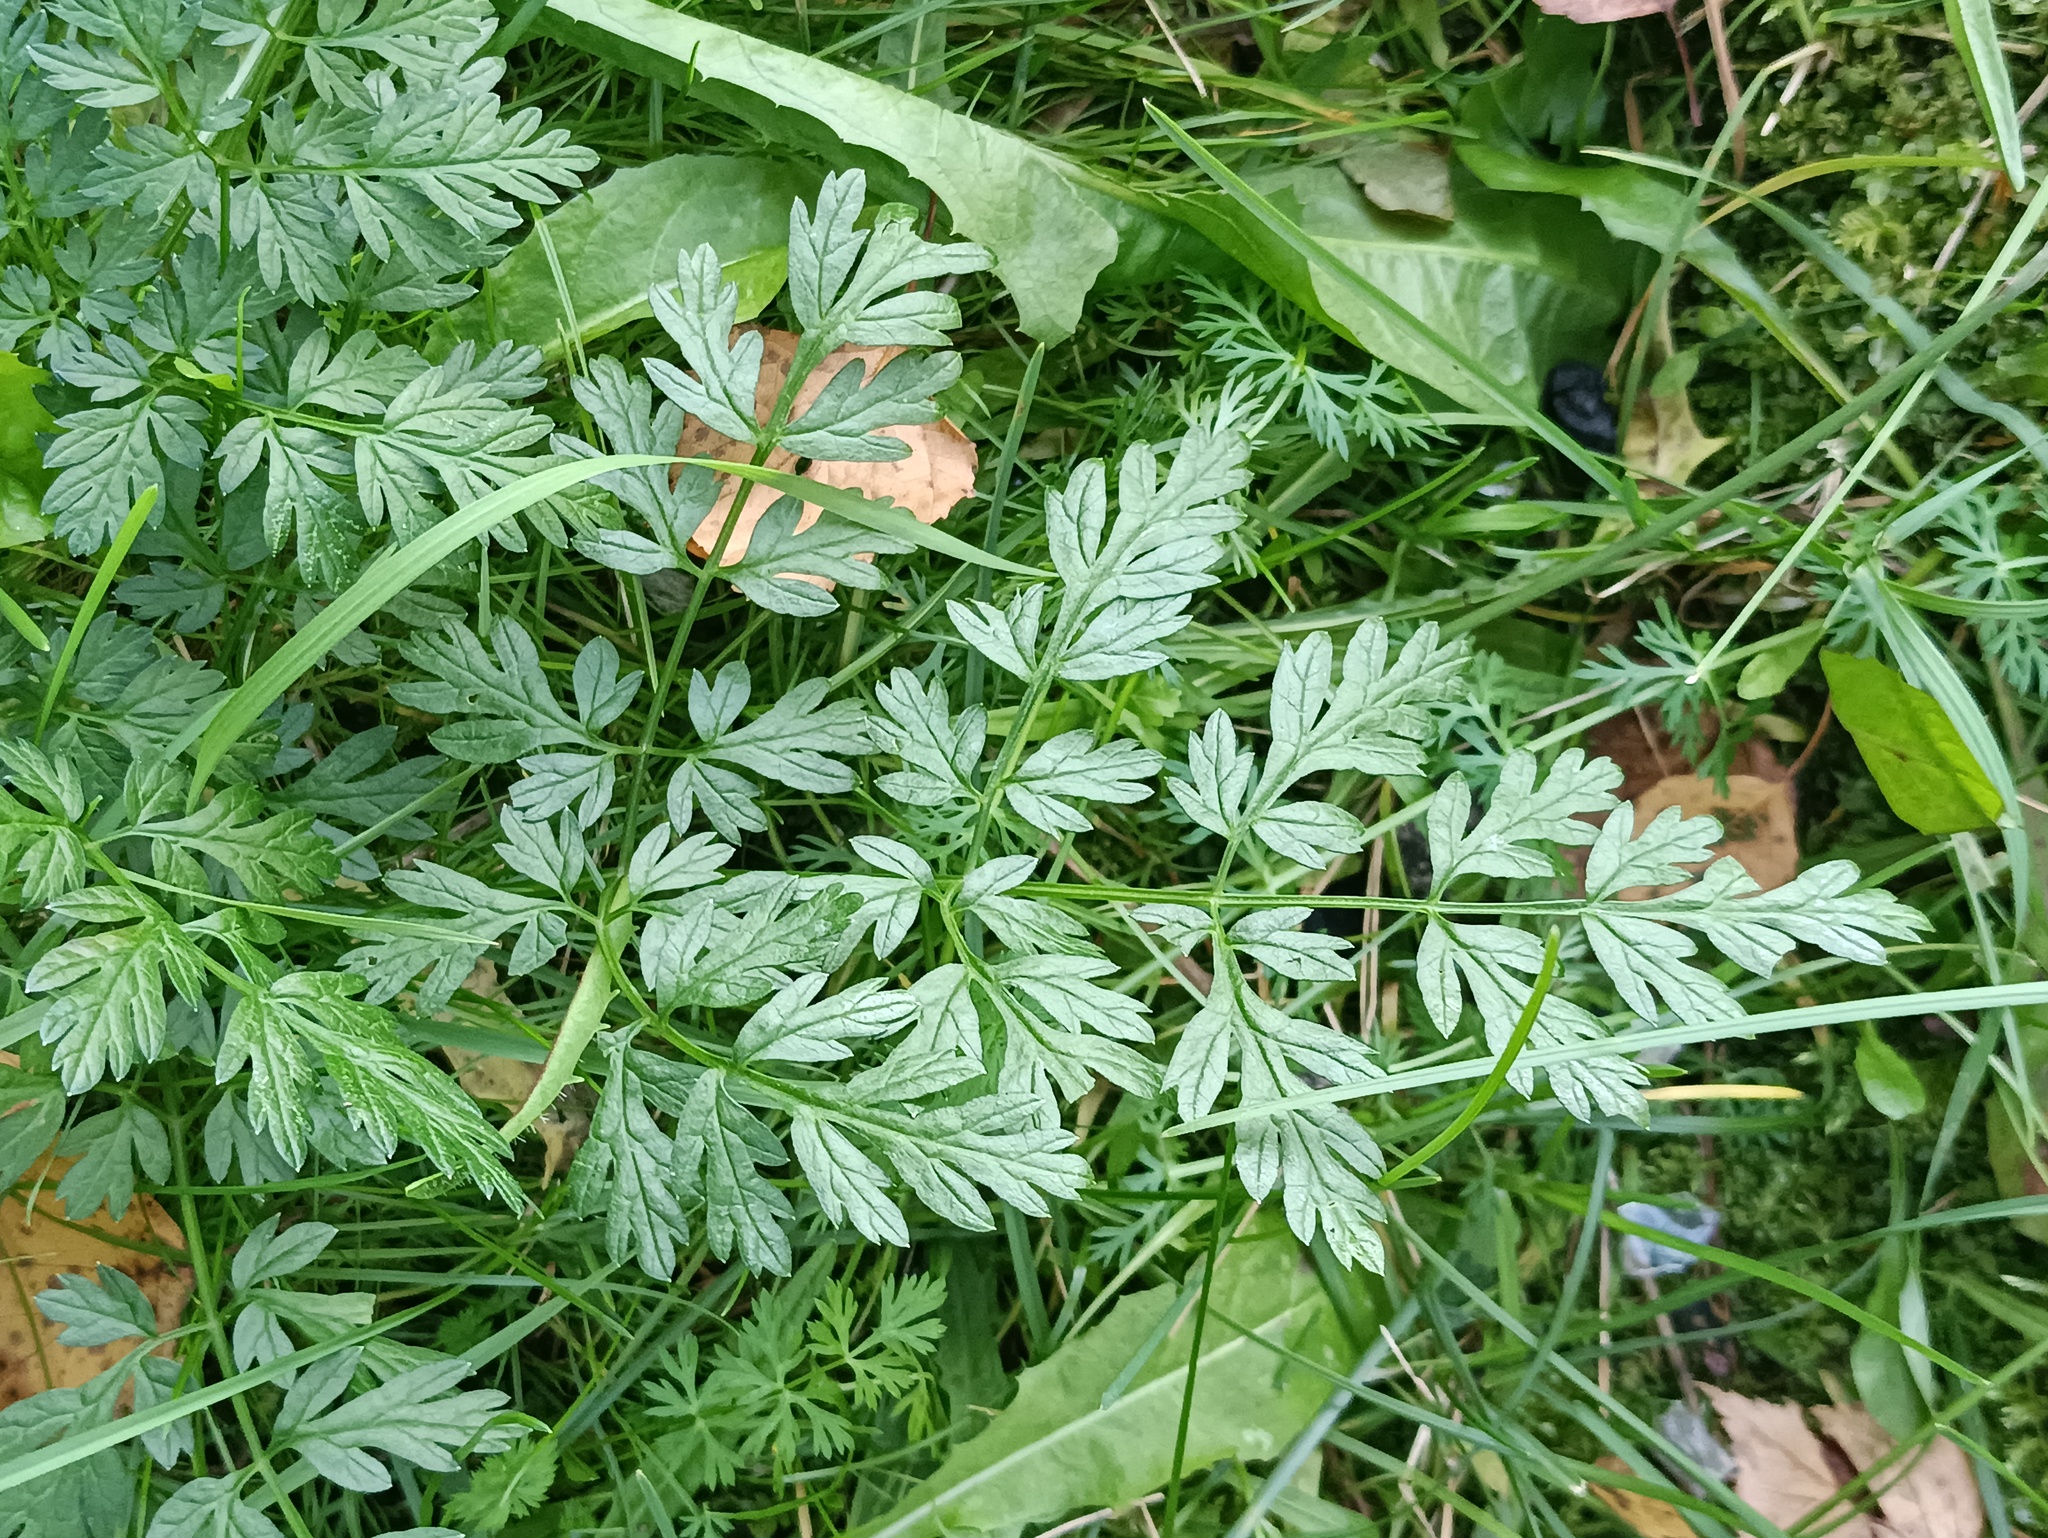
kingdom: Plantae
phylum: Tracheophyta
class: Magnoliopsida
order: Apiales
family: Apiaceae
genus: Anthriscus
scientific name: Anthriscus sylvestris
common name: Cow parsley
